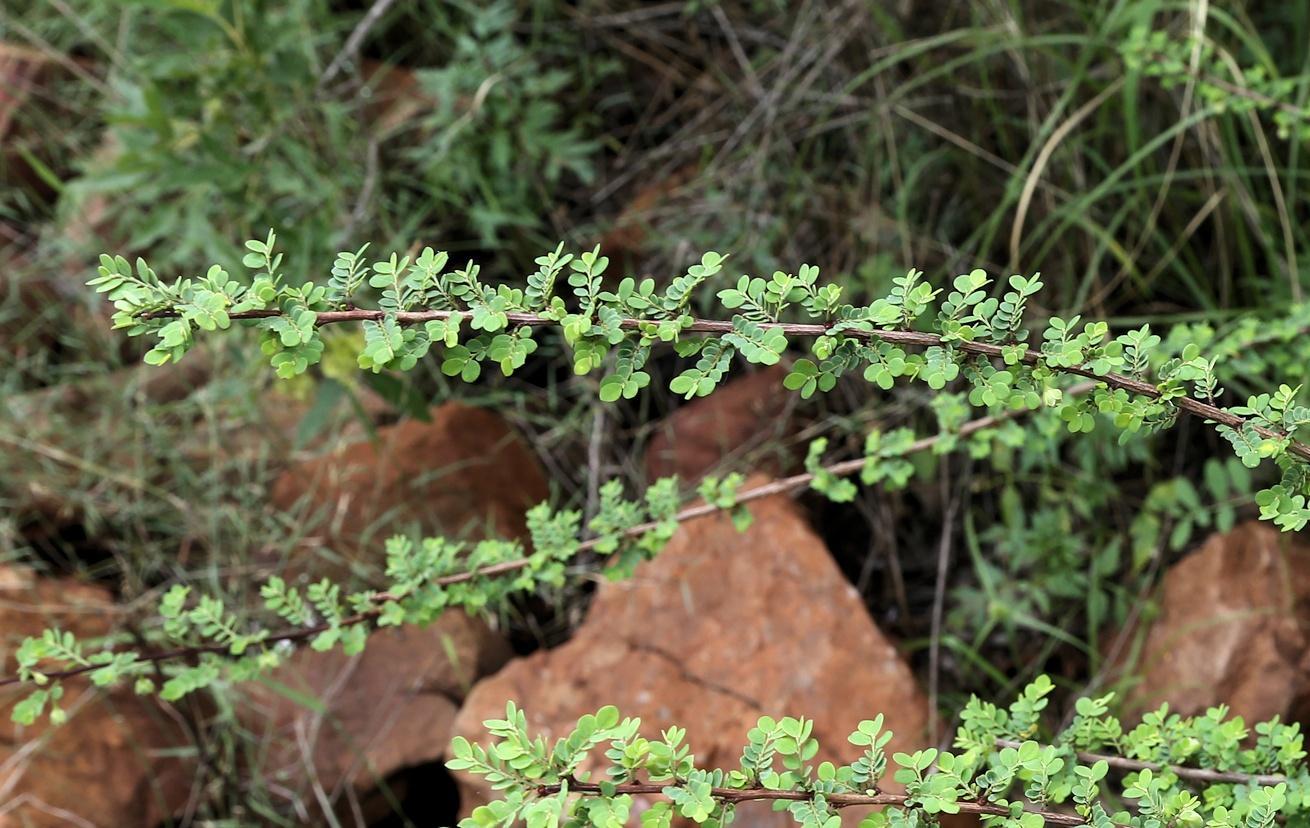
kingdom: Plantae
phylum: Tracheophyta
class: Magnoliopsida
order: Malpighiales
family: Phyllanthaceae
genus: Phyllanthus
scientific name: Phyllanthus macranthus
